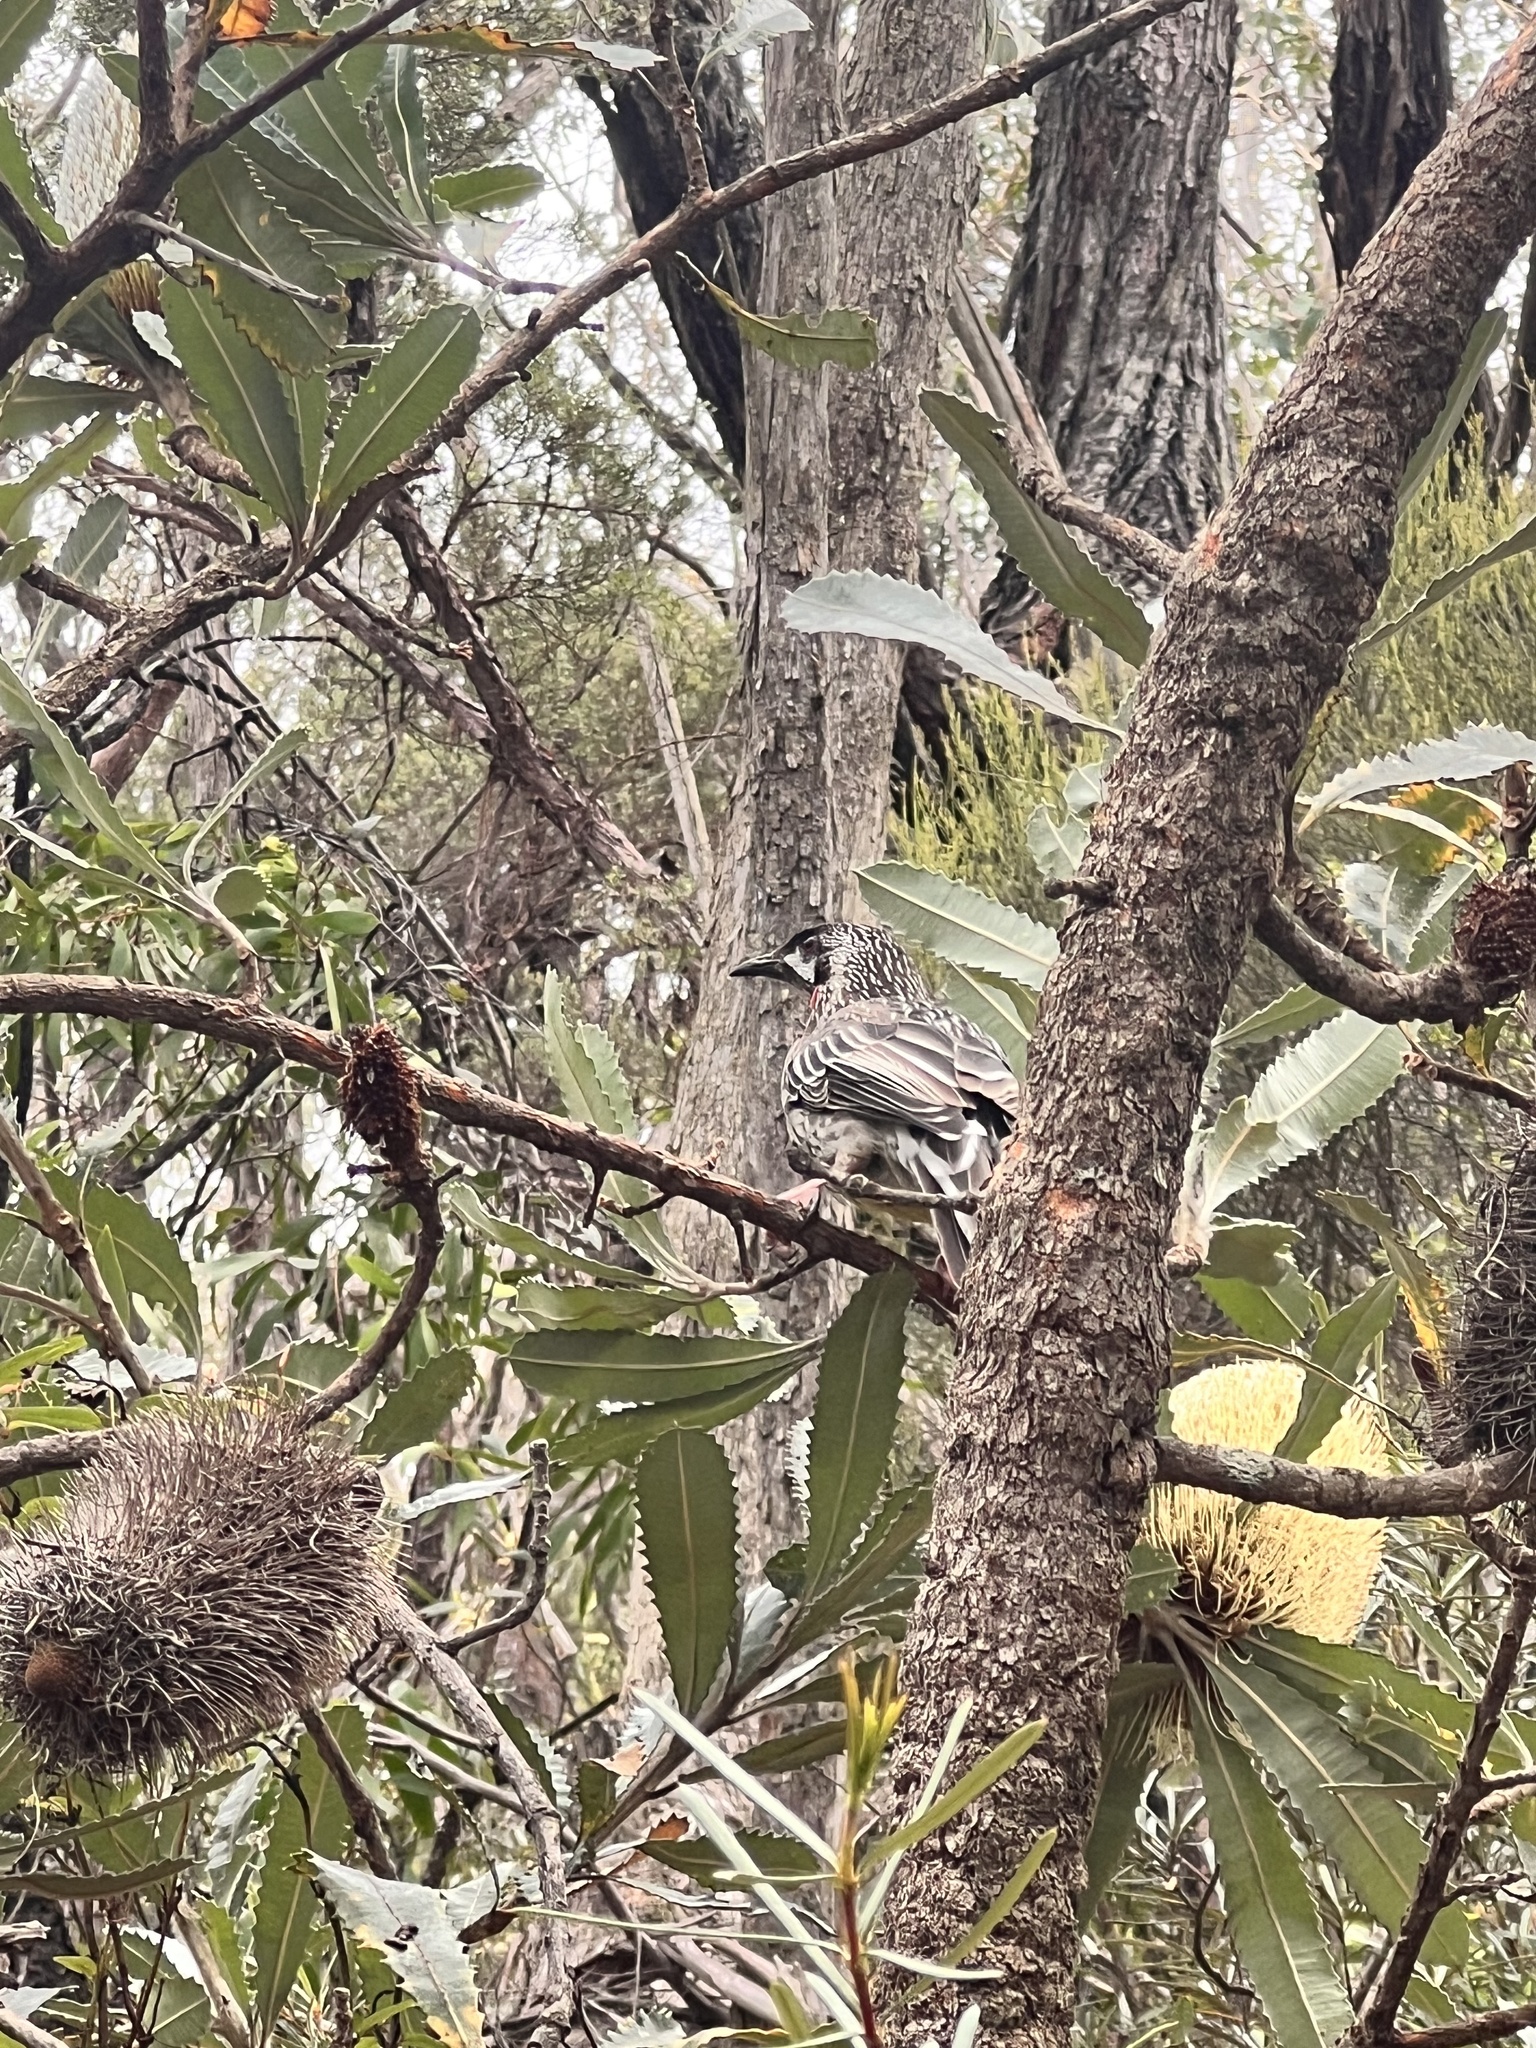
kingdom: Animalia
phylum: Chordata
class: Aves
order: Passeriformes
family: Meliphagidae
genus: Anthochaera
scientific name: Anthochaera carunculata
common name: Red wattlebird
